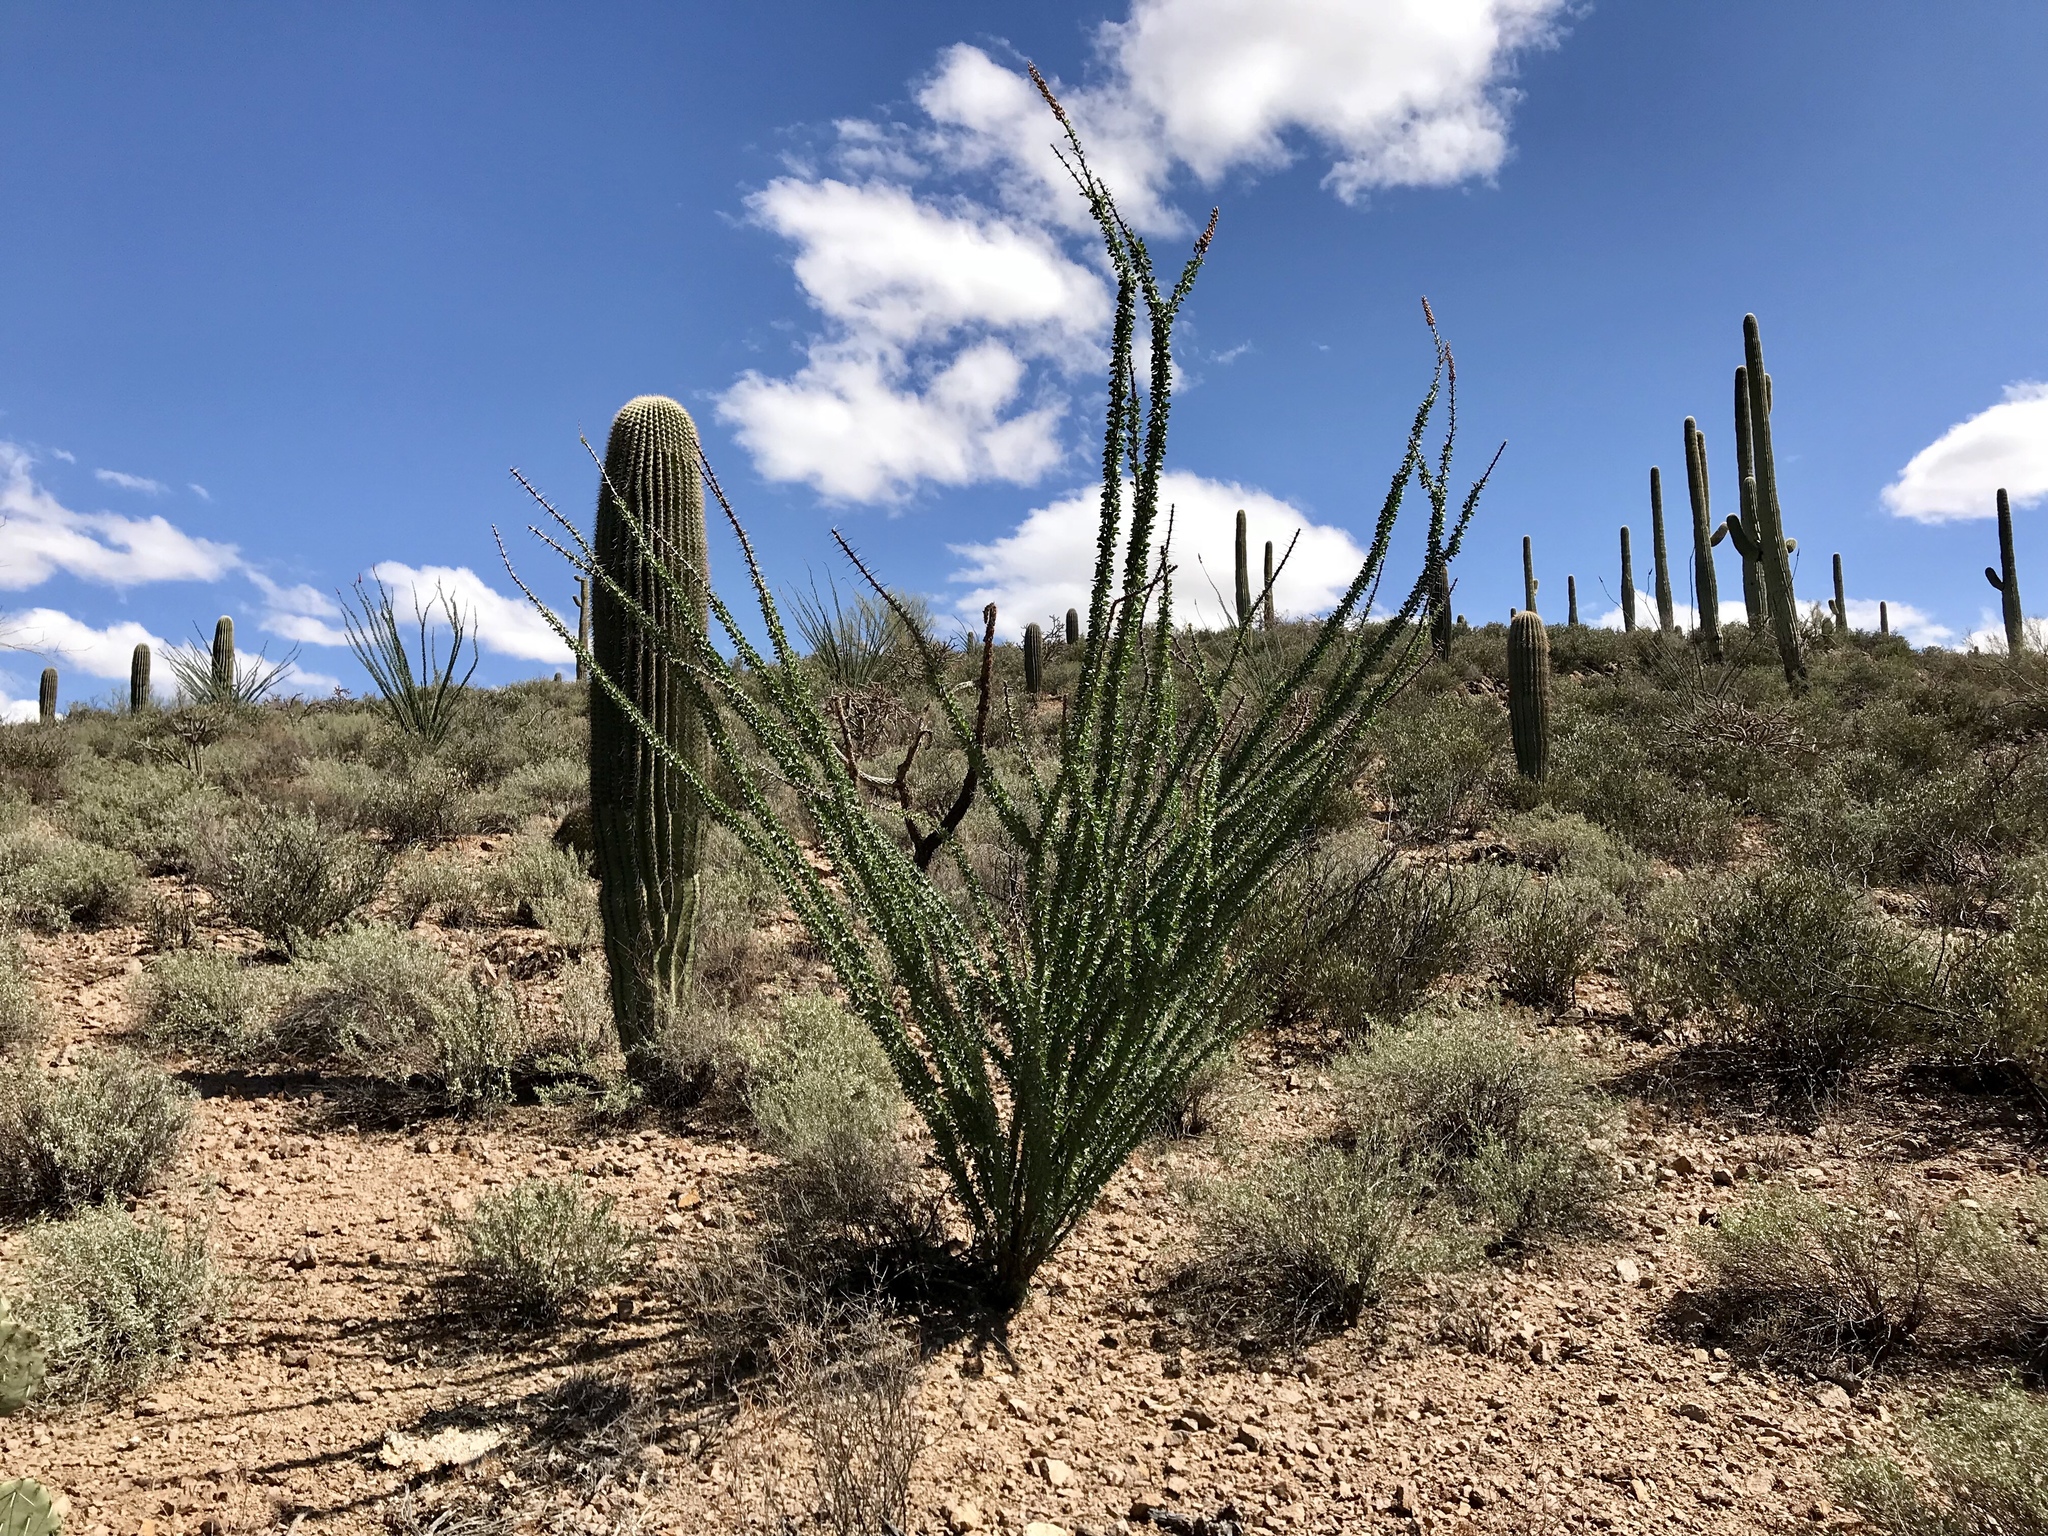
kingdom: Plantae
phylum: Tracheophyta
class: Magnoliopsida
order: Ericales
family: Fouquieriaceae
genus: Fouquieria
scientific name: Fouquieria splendens
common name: Vine-cactus
